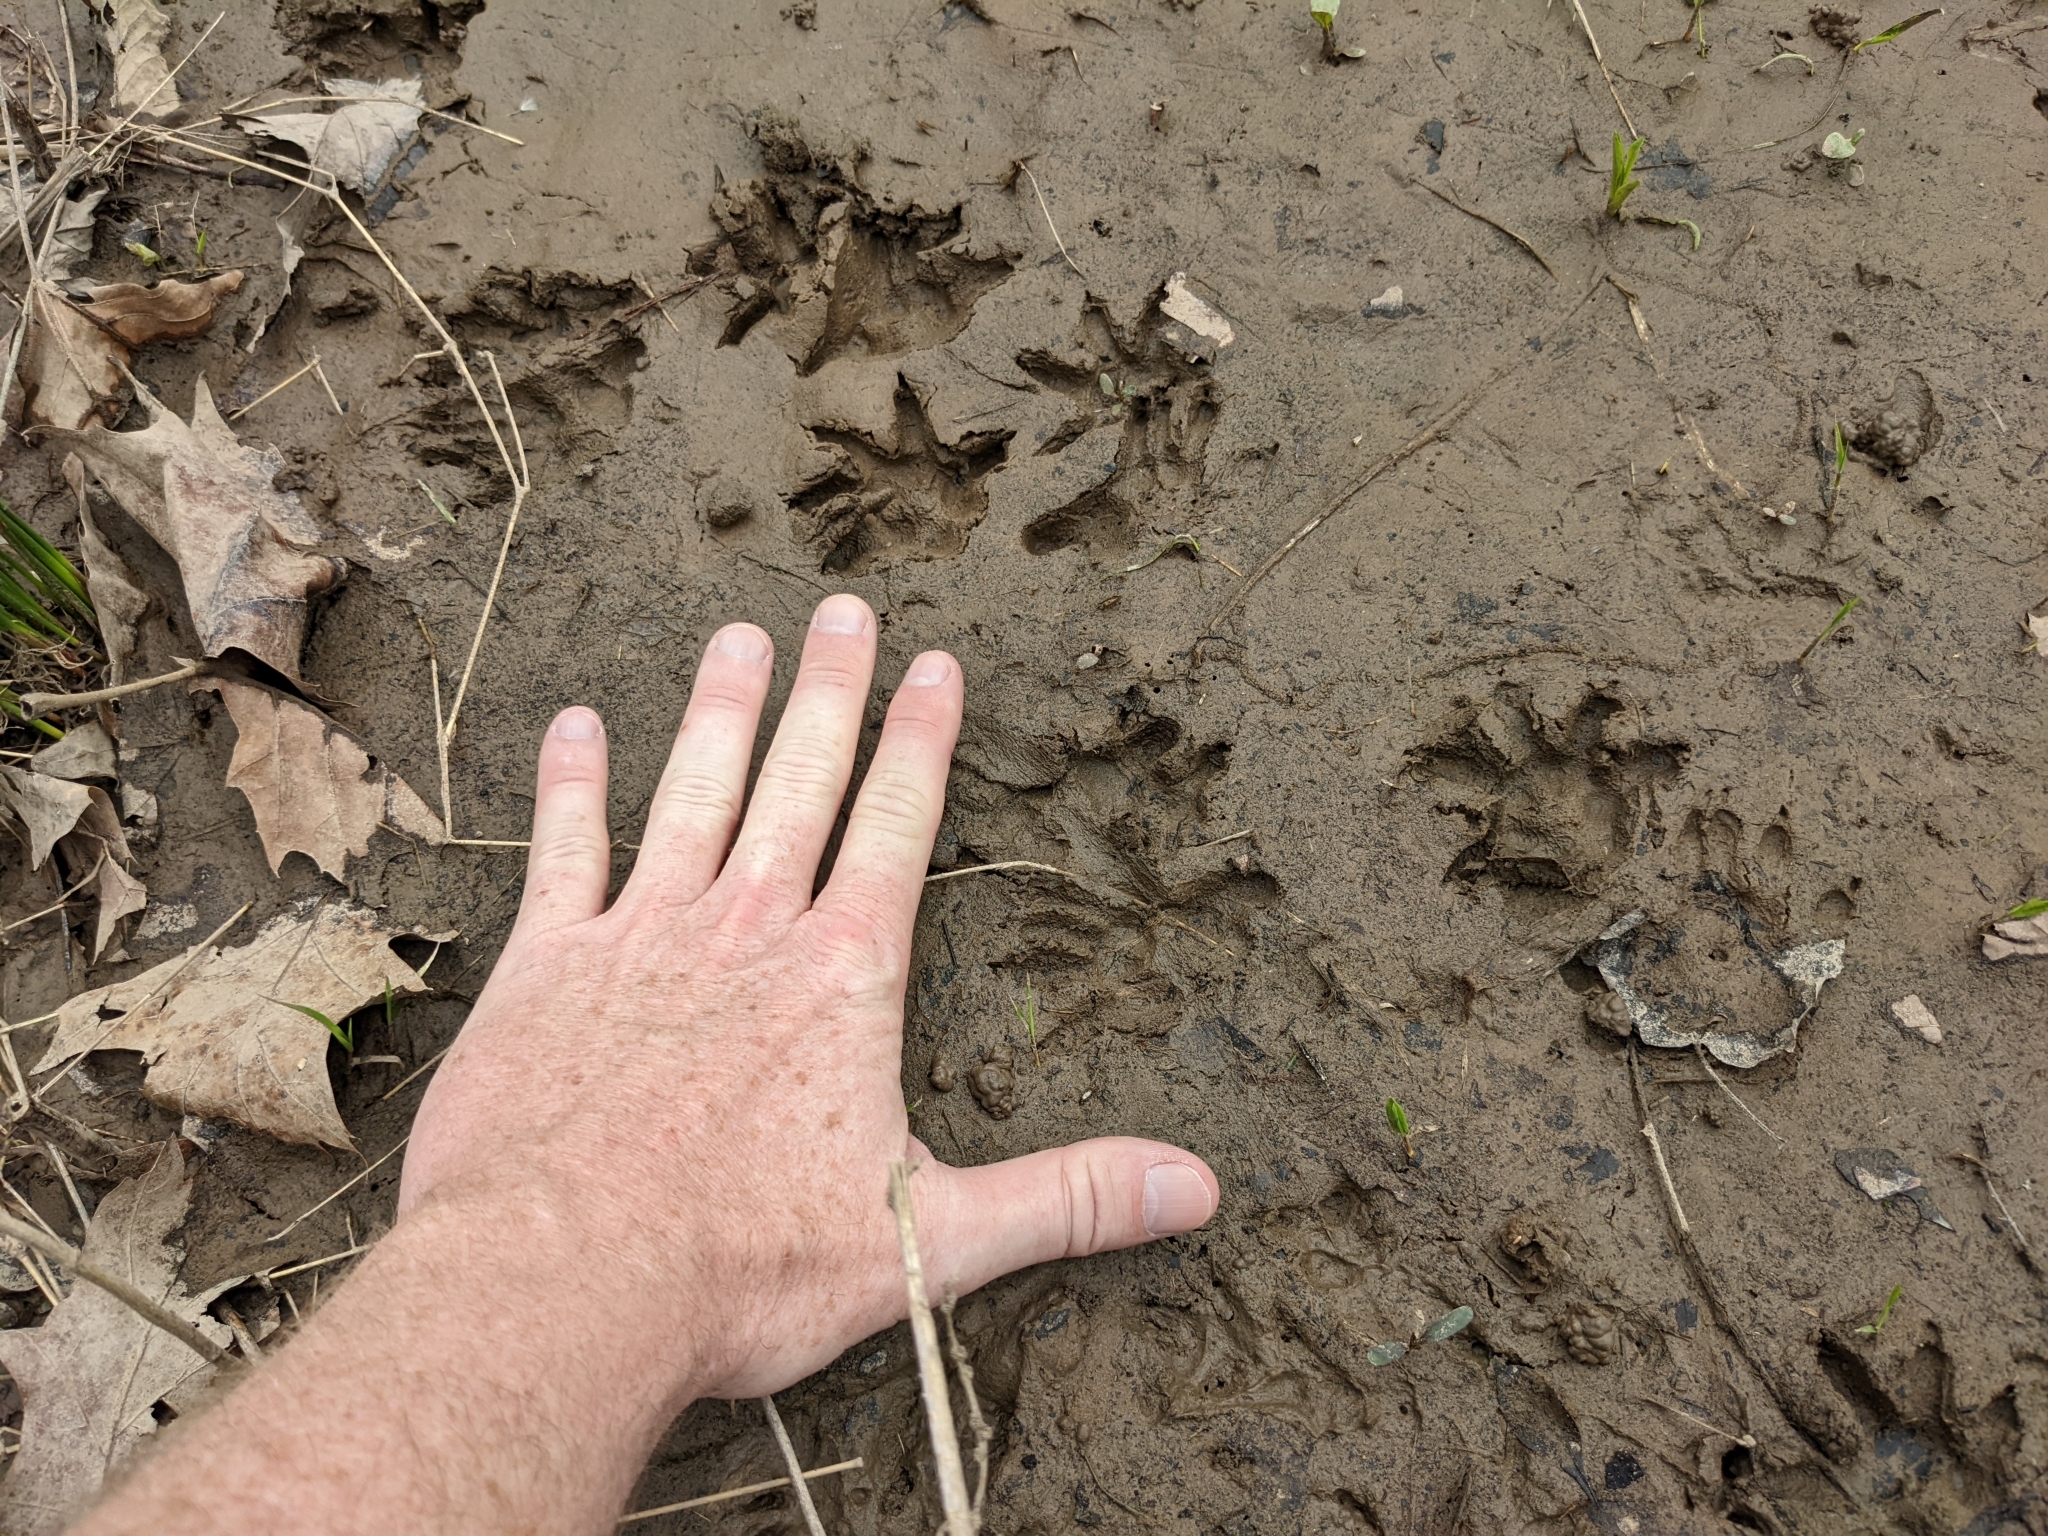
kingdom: Animalia
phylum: Chordata
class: Mammalia
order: Didelphimorphia
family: Didelphidae
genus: Didelphis
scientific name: Didelphis virginiana
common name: Virginia opossum
